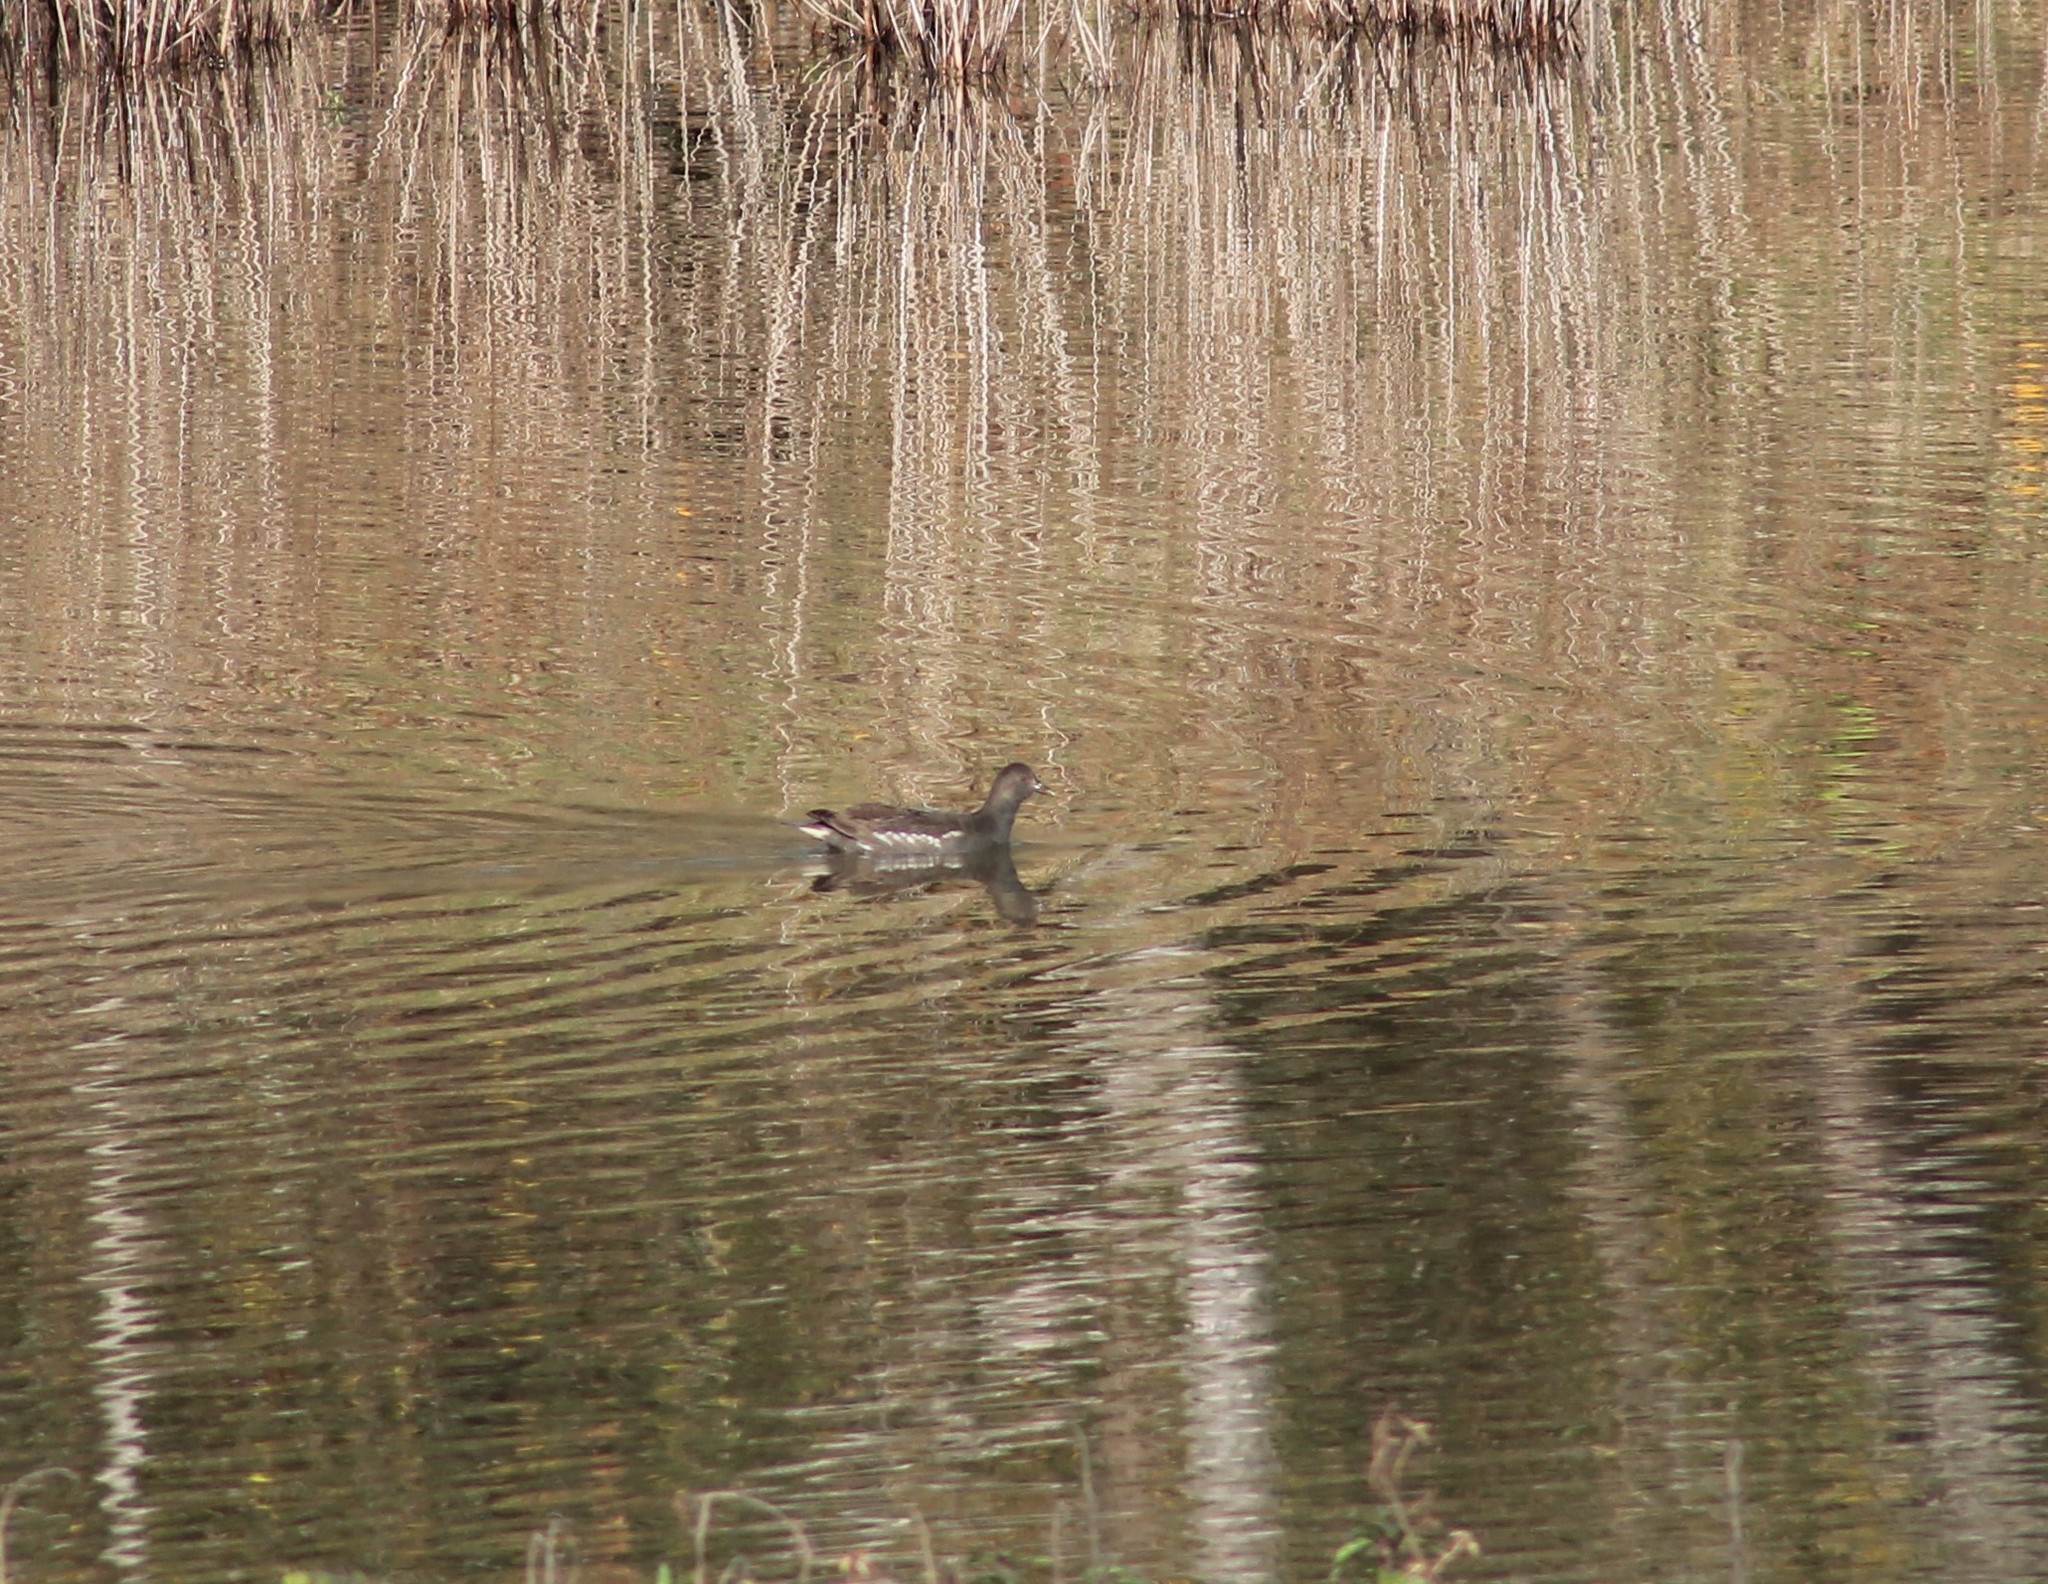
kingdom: Animalia
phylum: Chordata
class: Aves
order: Gruiformes
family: Rallidae
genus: Gallinula
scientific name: Gallinula chloropus
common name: Common moorhen
